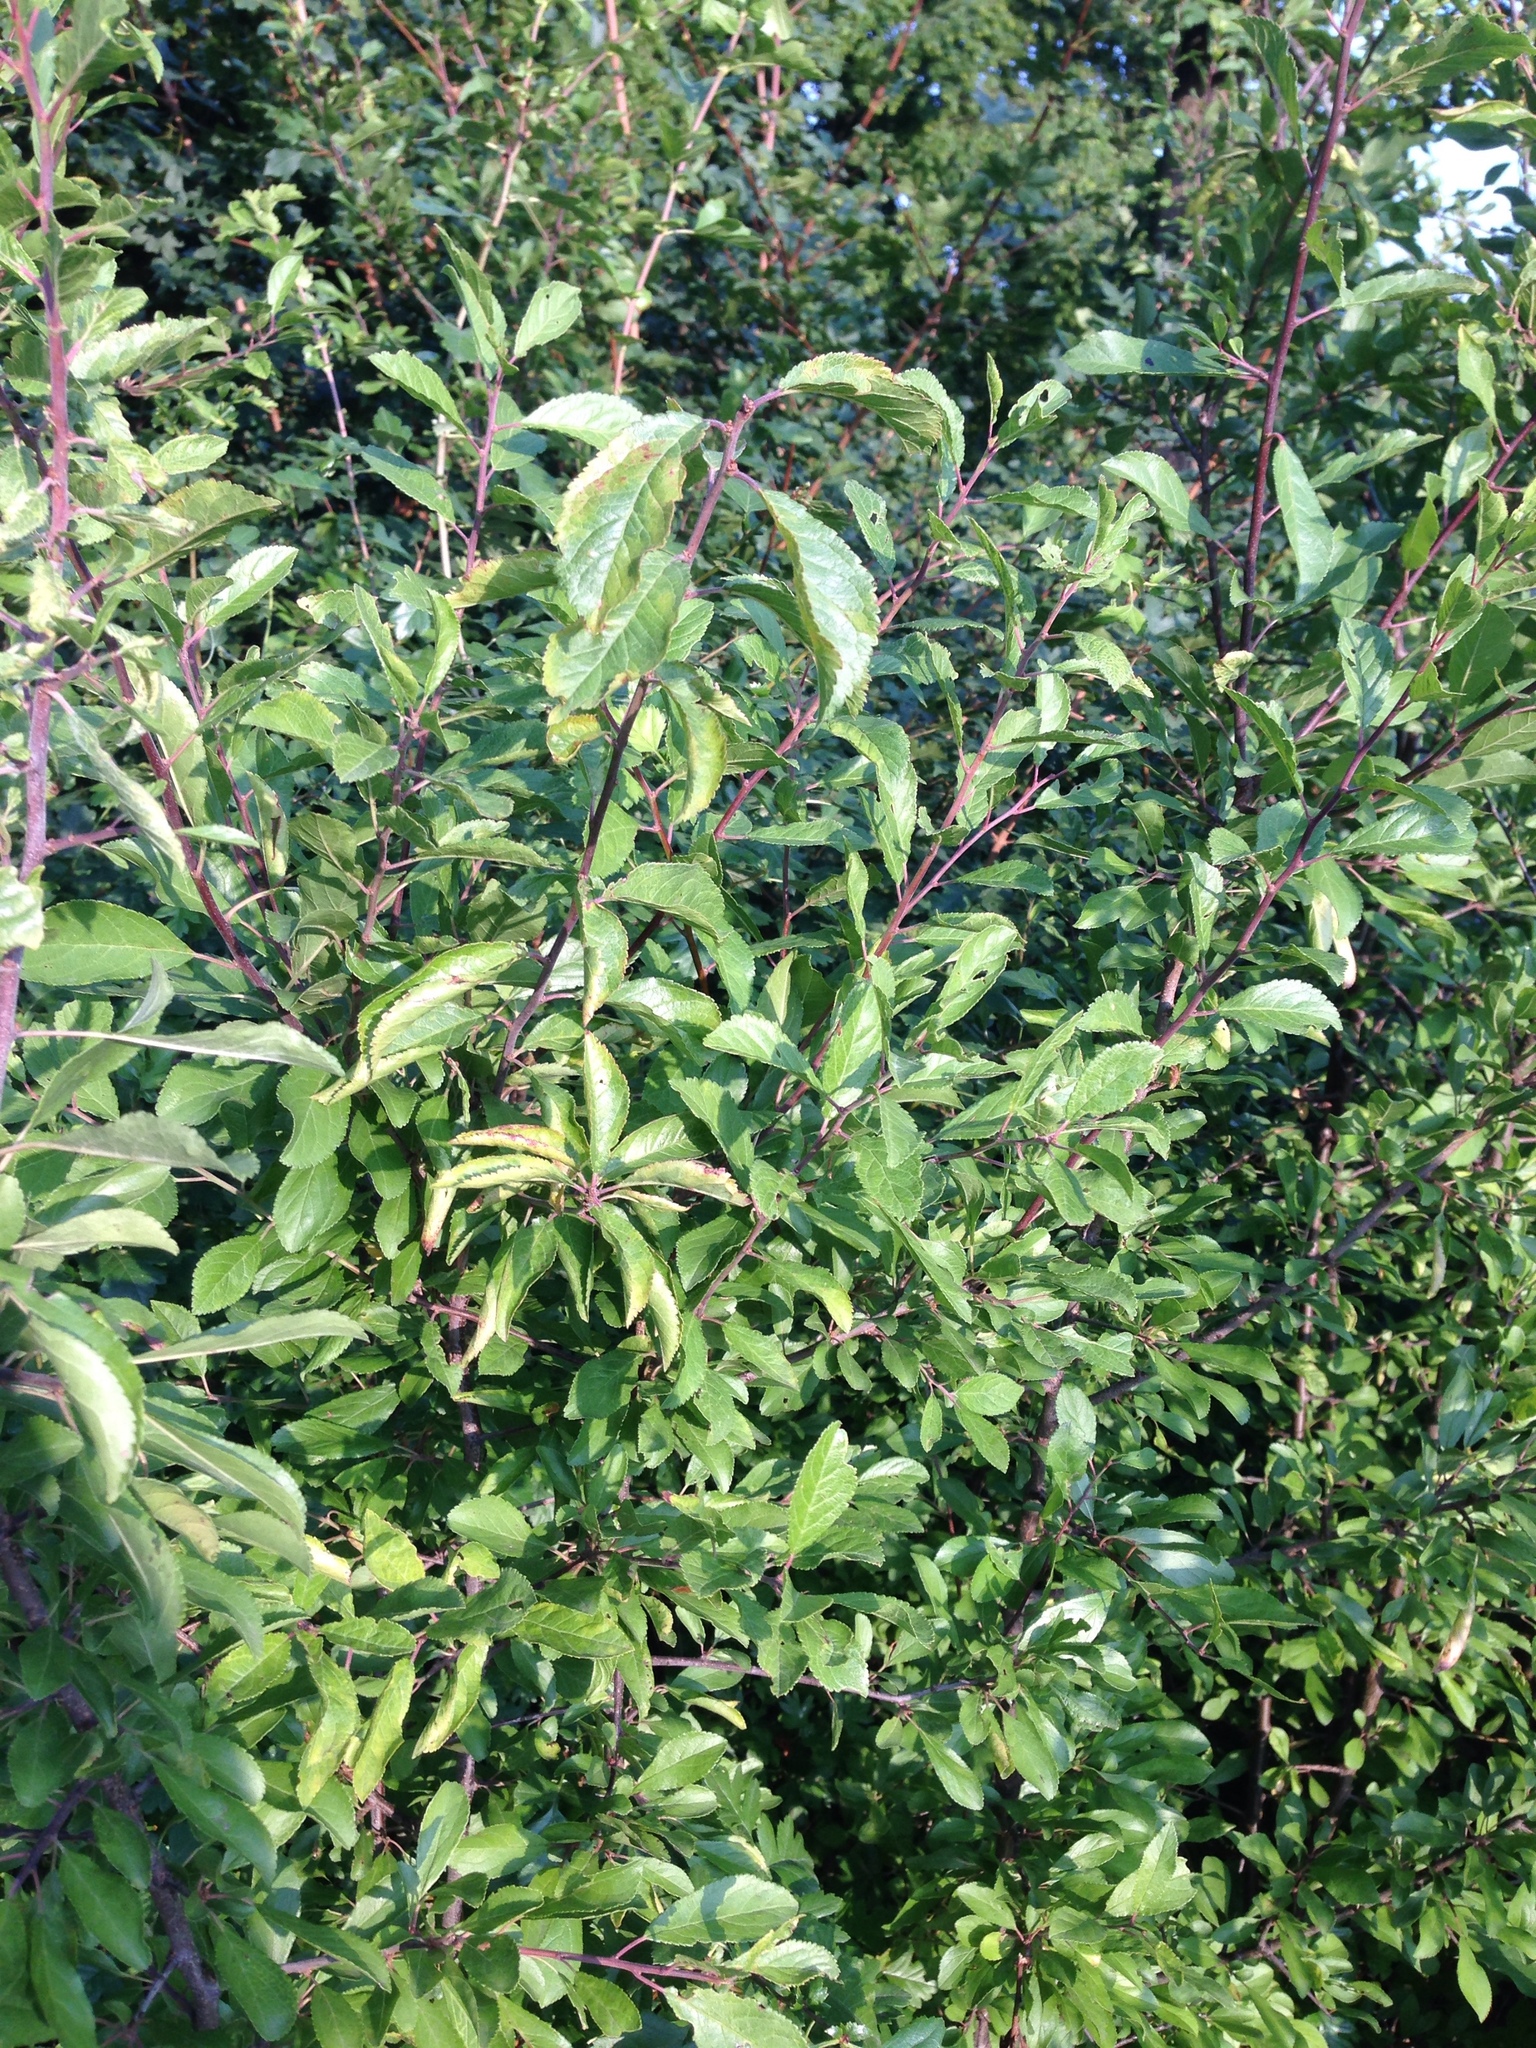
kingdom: Plantae
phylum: Tracheophyta
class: Magnoliopsida
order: Rosales
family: Rosaceae
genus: Prunus
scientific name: Prunus spinosa
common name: Blackthorn
